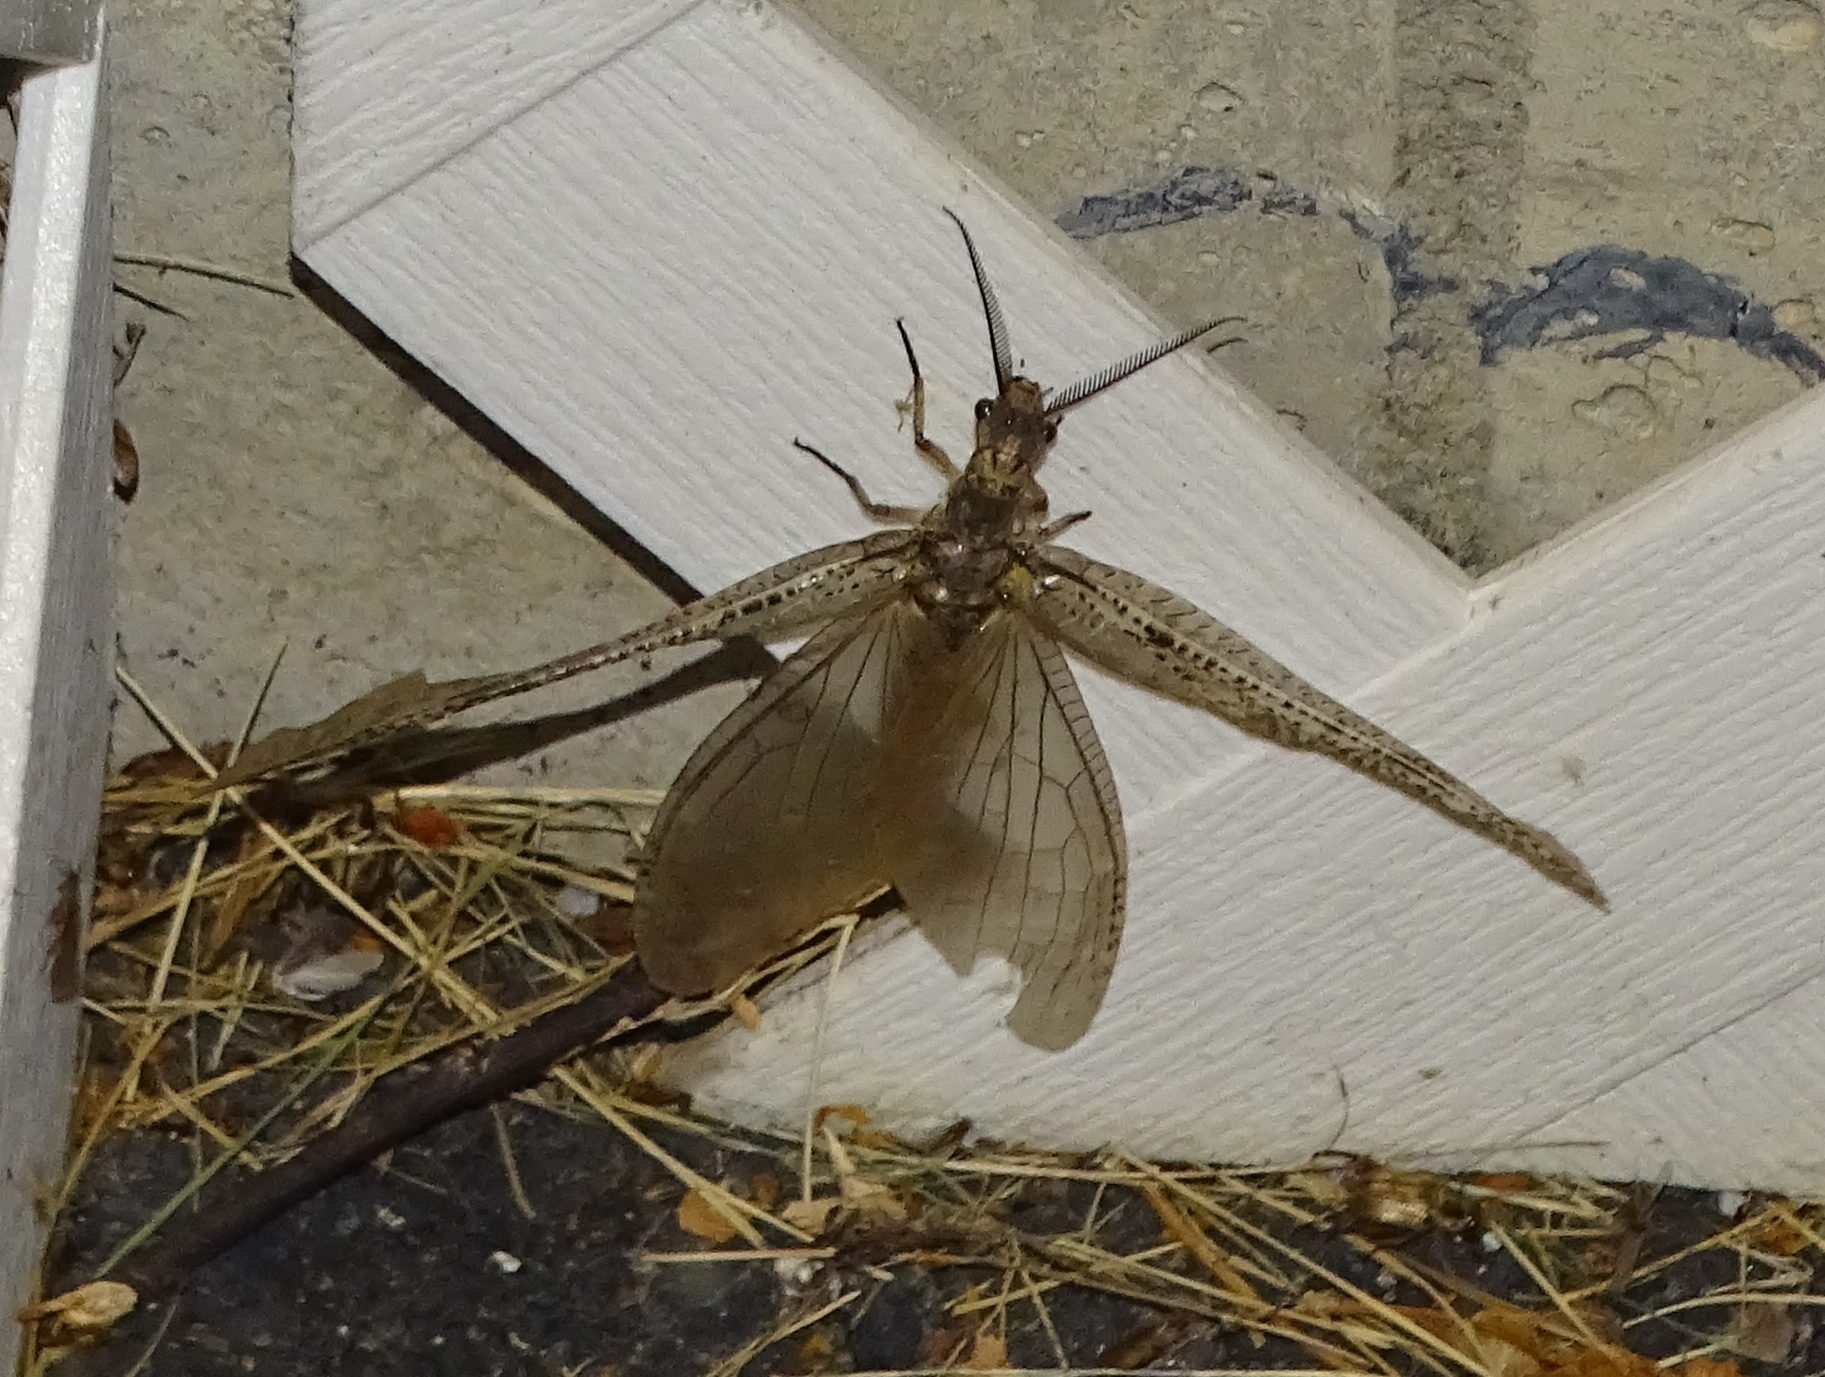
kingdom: Animalia
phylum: Arthropoda
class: Insecta
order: Megaloptera
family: Corydalidae
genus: Chauliodes
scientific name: Chauliodes pectinicornis
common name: Summer fishfly
